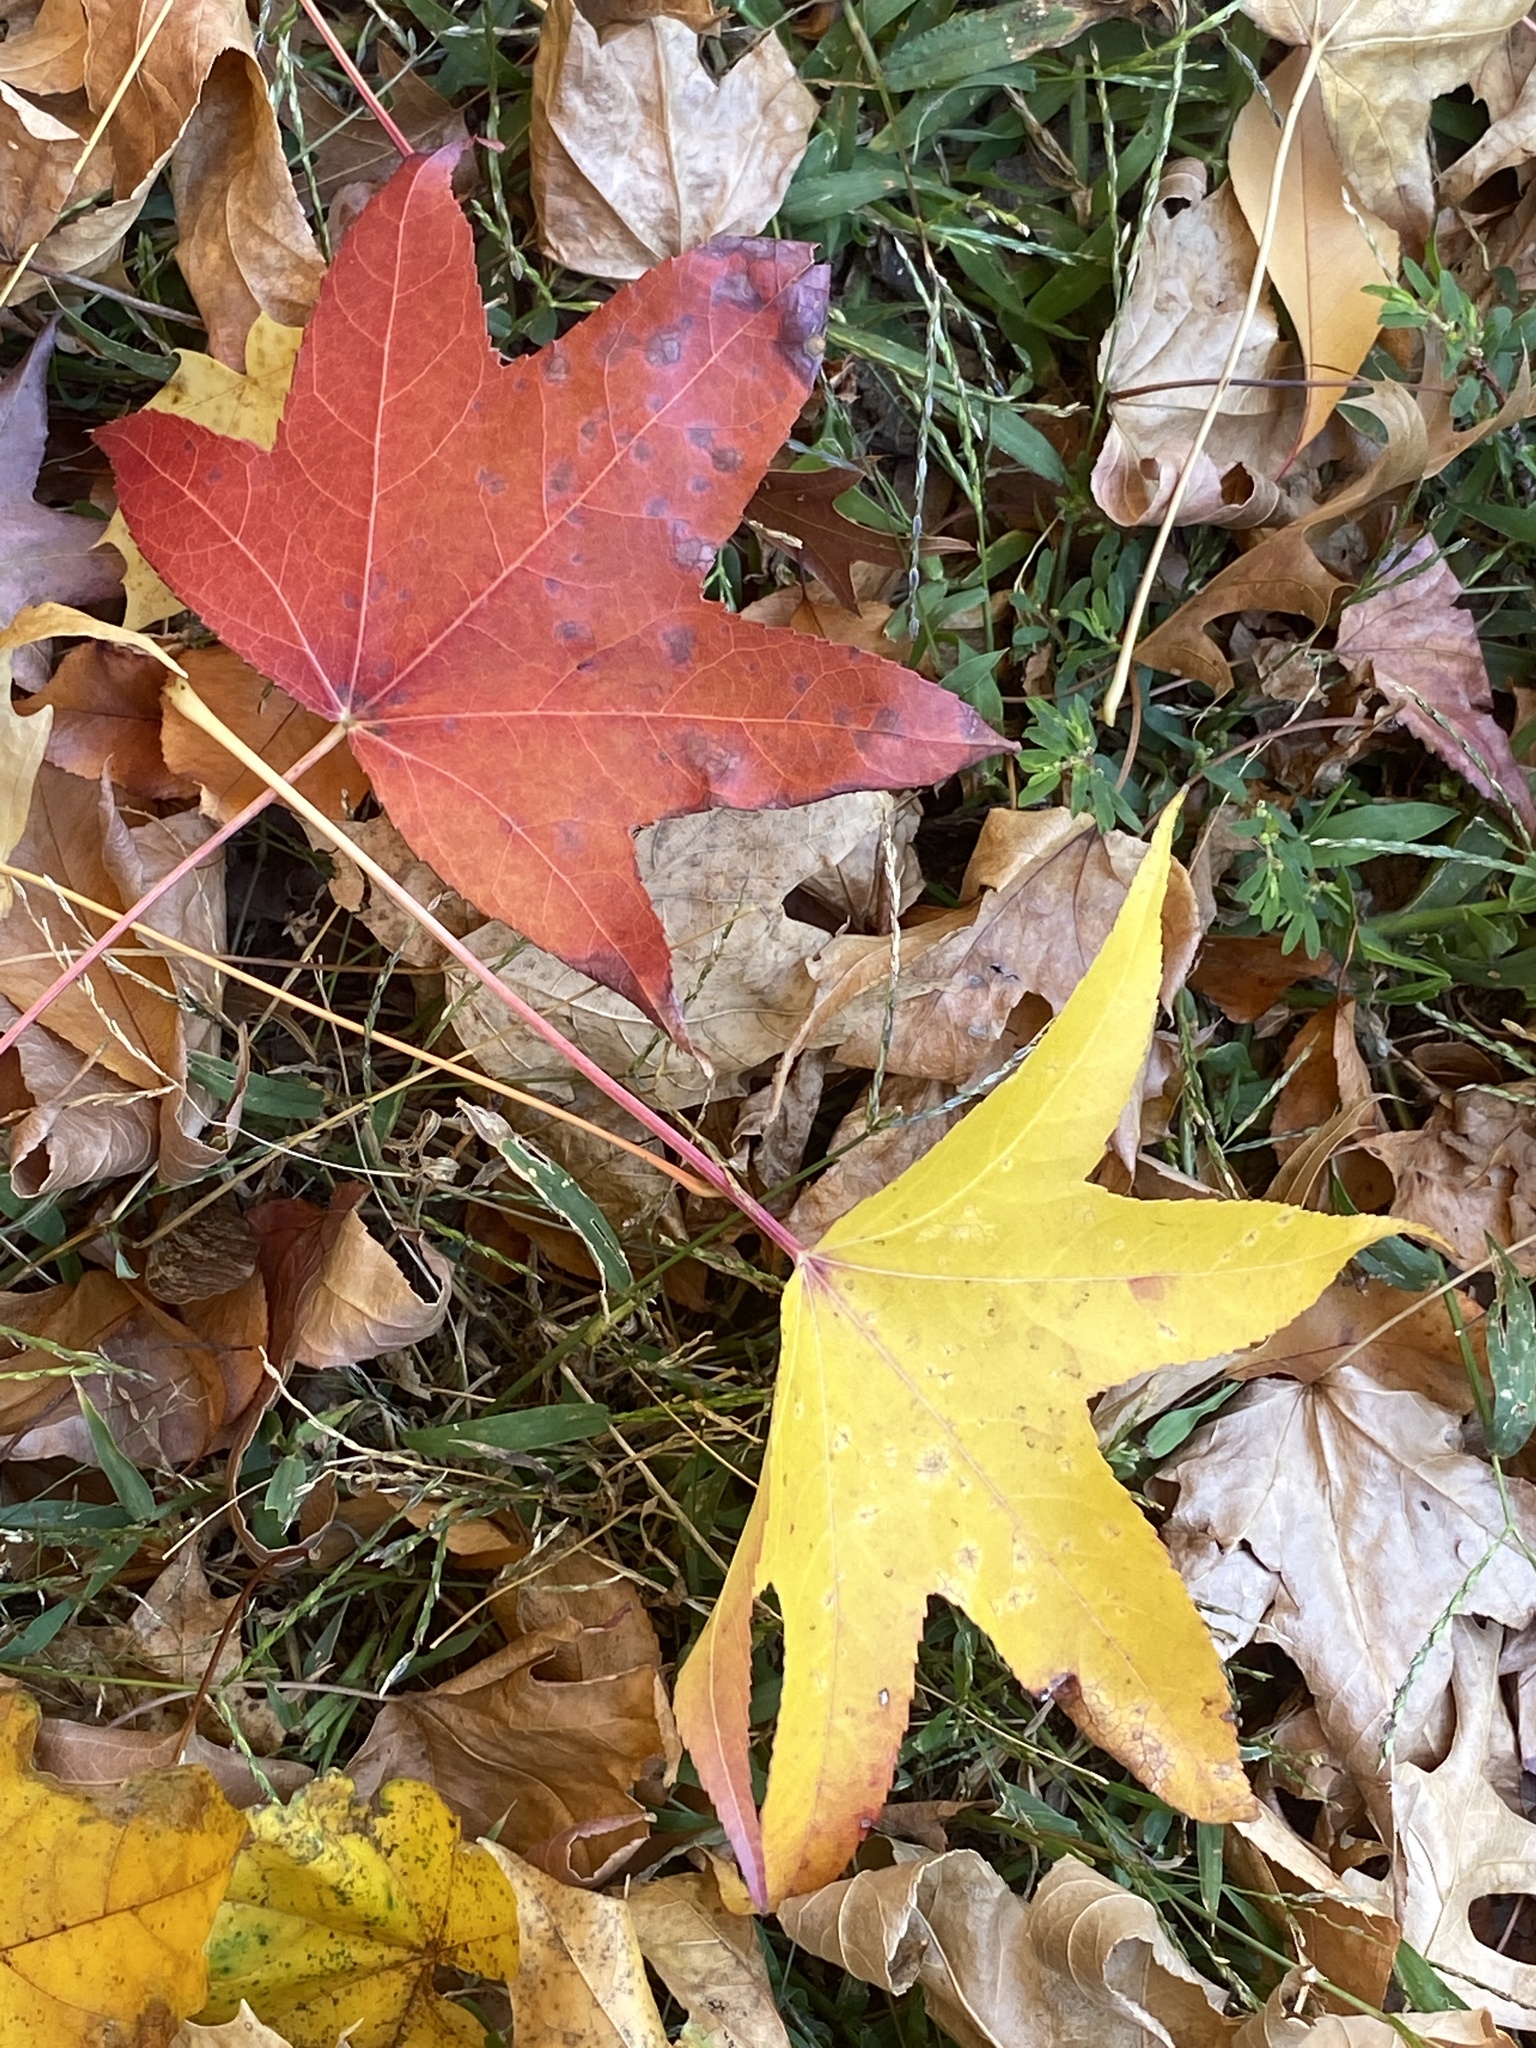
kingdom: Plantae
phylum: Tracheophyta
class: Magnoliopsida
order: Saxifragales
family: Altingiaceae
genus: Liquidambar
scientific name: Liquidambar styraciflua
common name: Sweet gum
